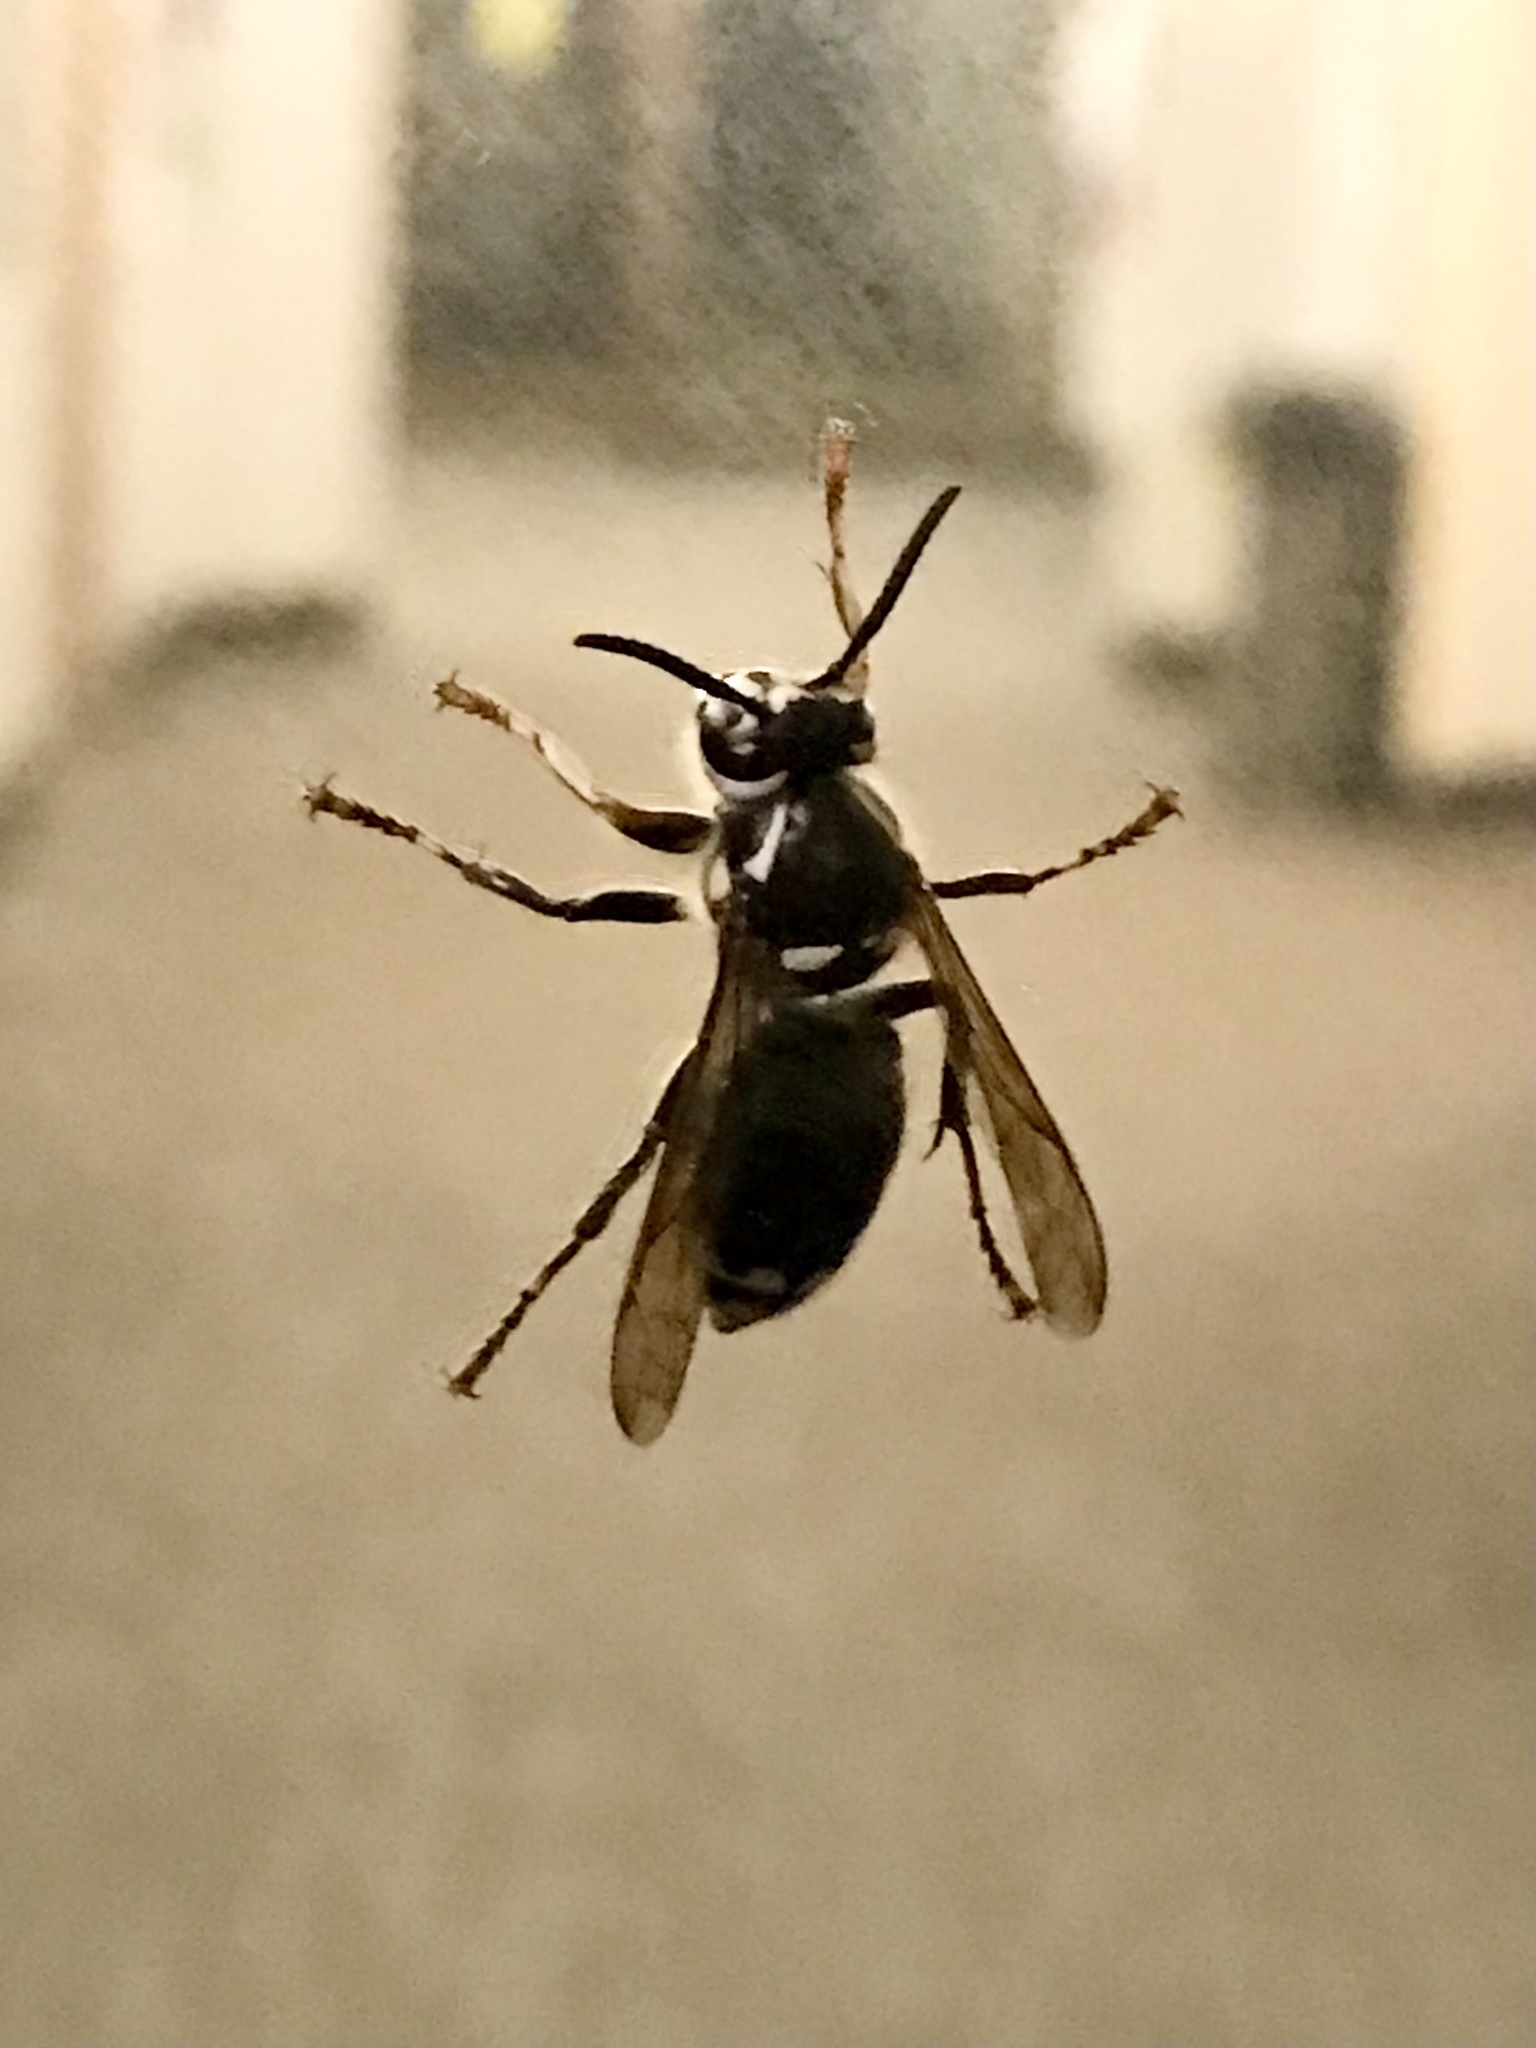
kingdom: Animalia
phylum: Arthropoda
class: Insecta
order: Hymenoptera
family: Vespidae
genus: Dolichovespula
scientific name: Dolichovespula maculata
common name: Bald-faced hornet
